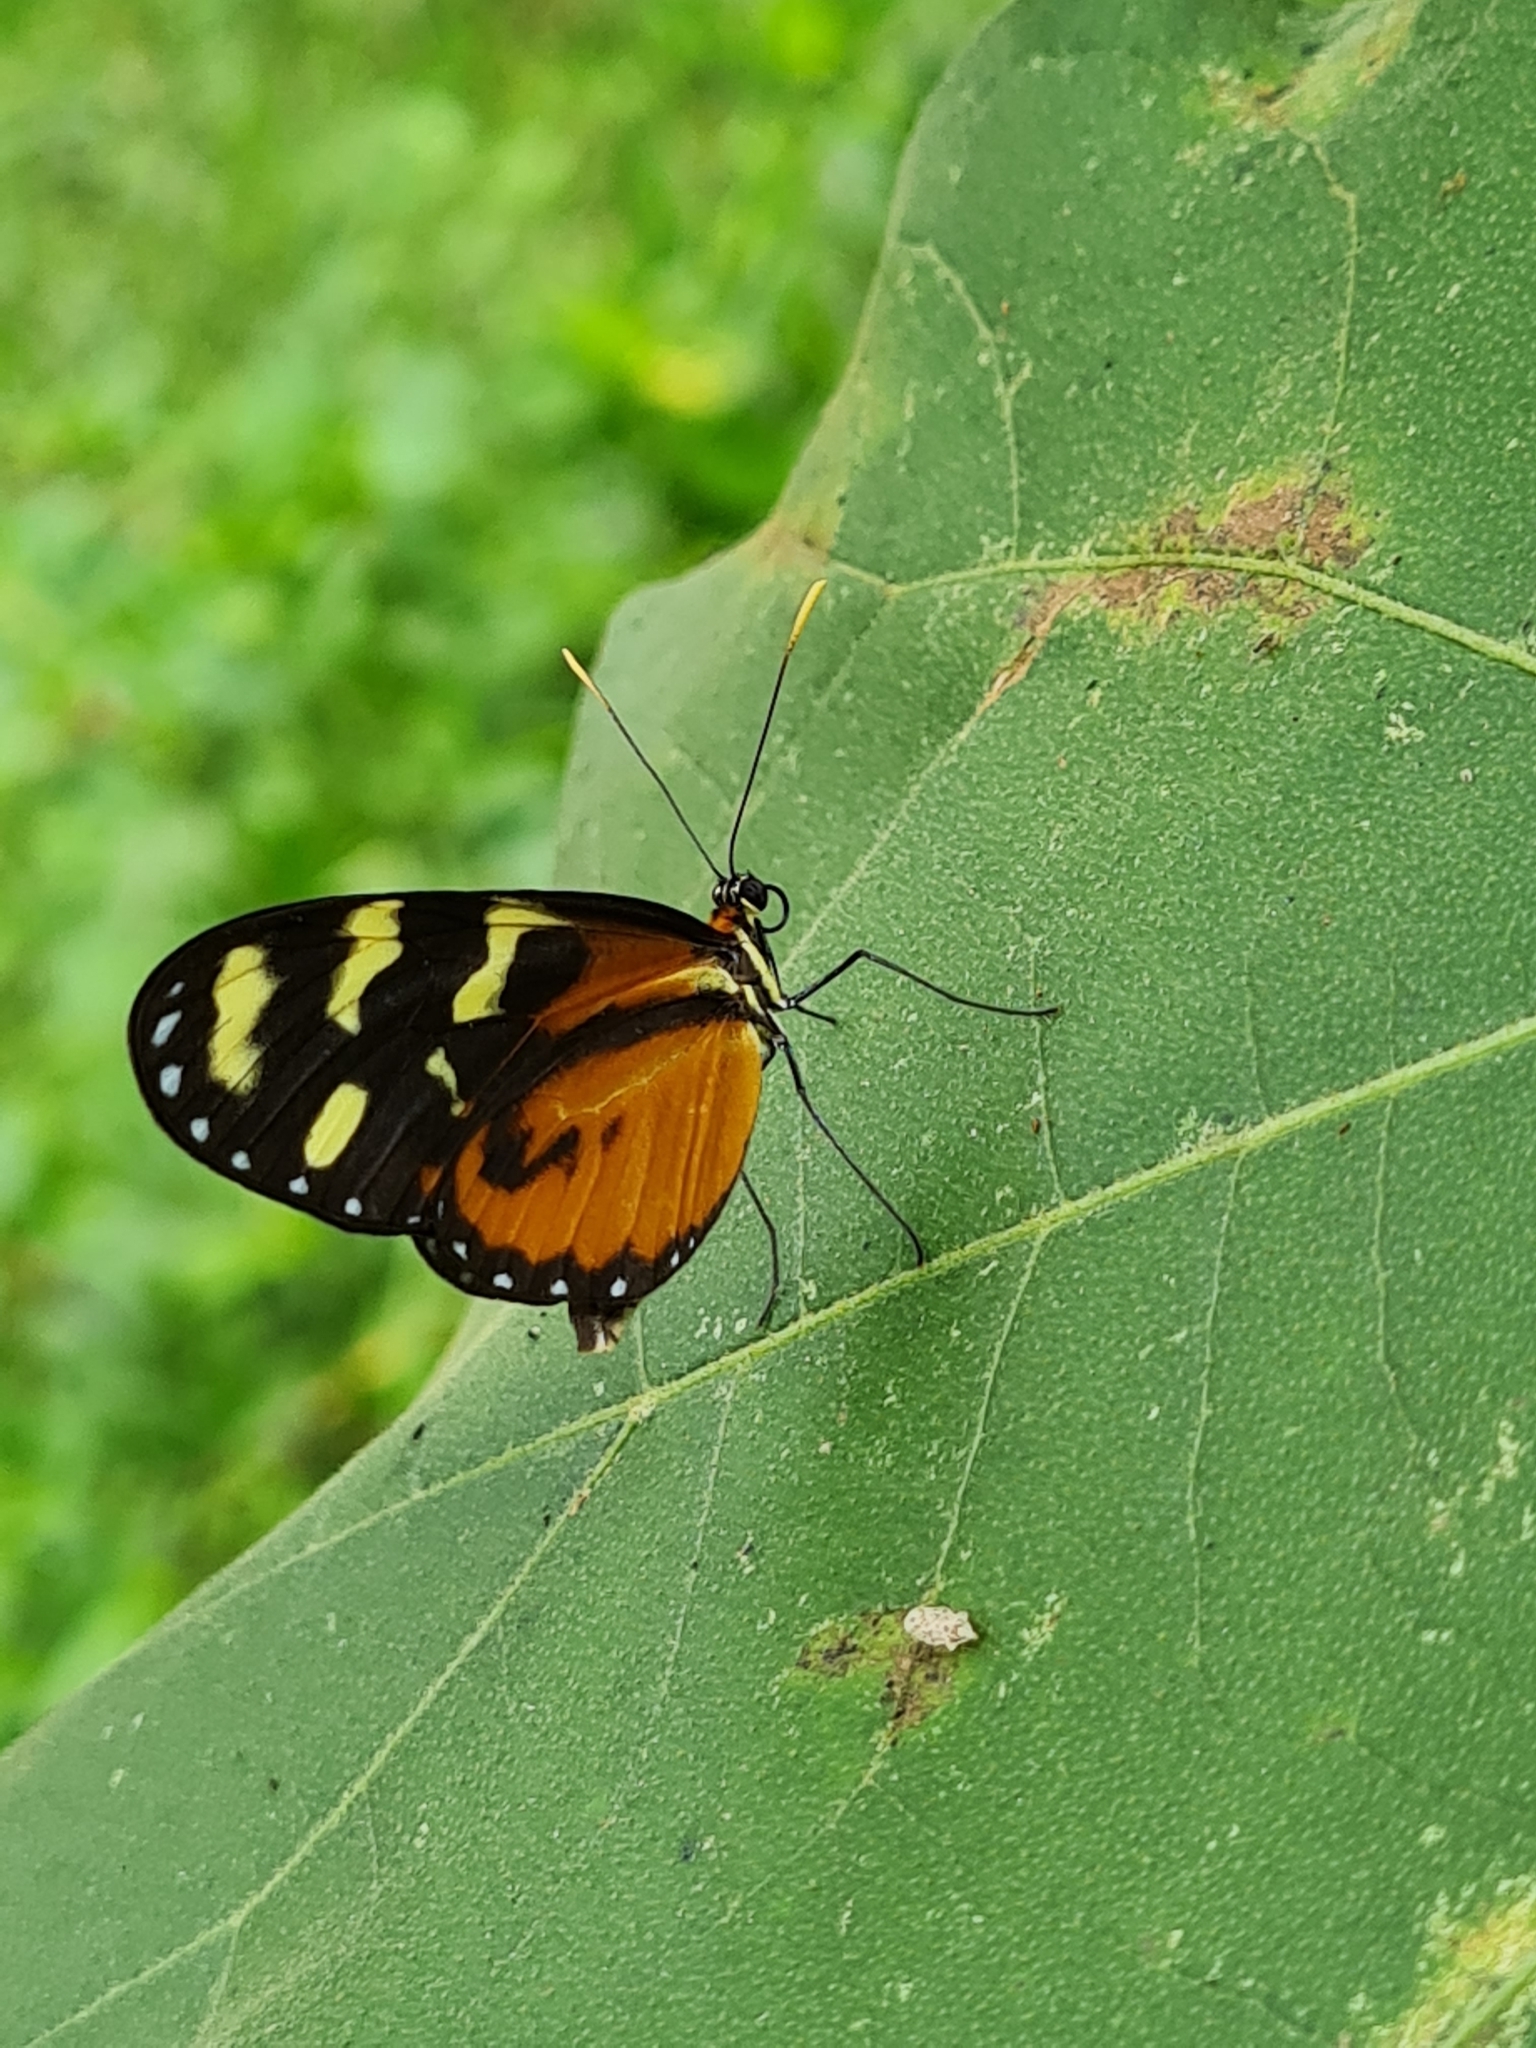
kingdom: Animalia
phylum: Arthropoda
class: Insecta
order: Lepidoptera
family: Nymphalidae
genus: Mechanitis
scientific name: Mechanitis lysimnia
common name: Lysimnia tigerwing
